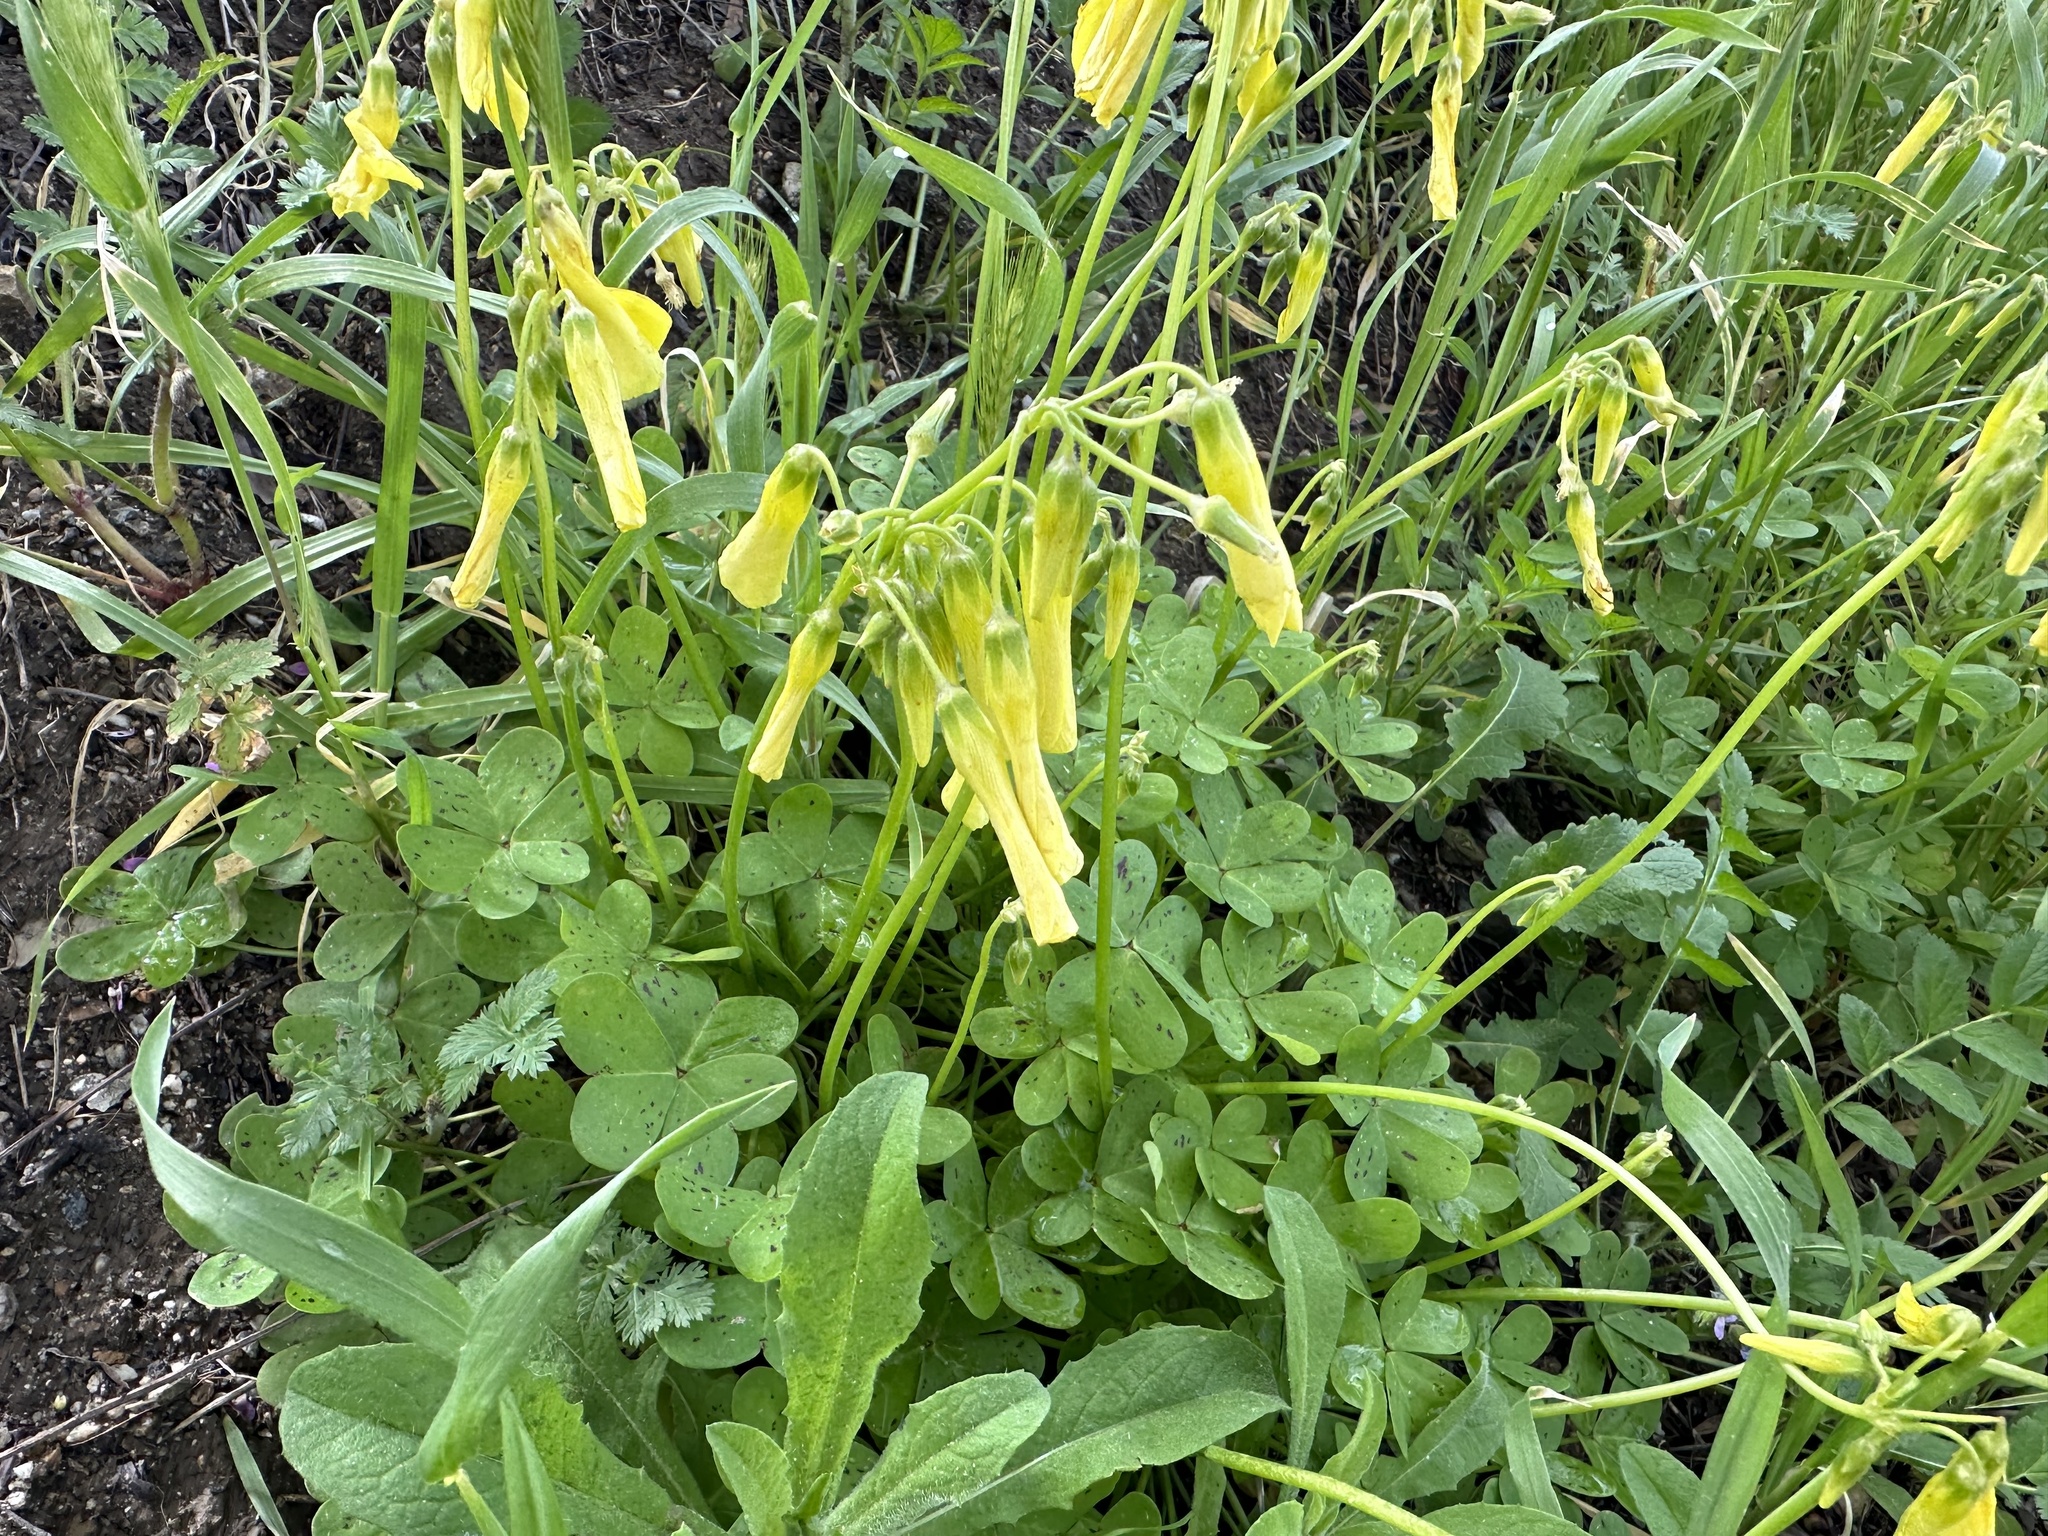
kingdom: Plantae
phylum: Tracheophyta
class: Magnoliopsida
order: Oxalidales
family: Oxalidaceae
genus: Oxalis
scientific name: Oxalis pes-caprae
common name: Bermuda-buttercup
